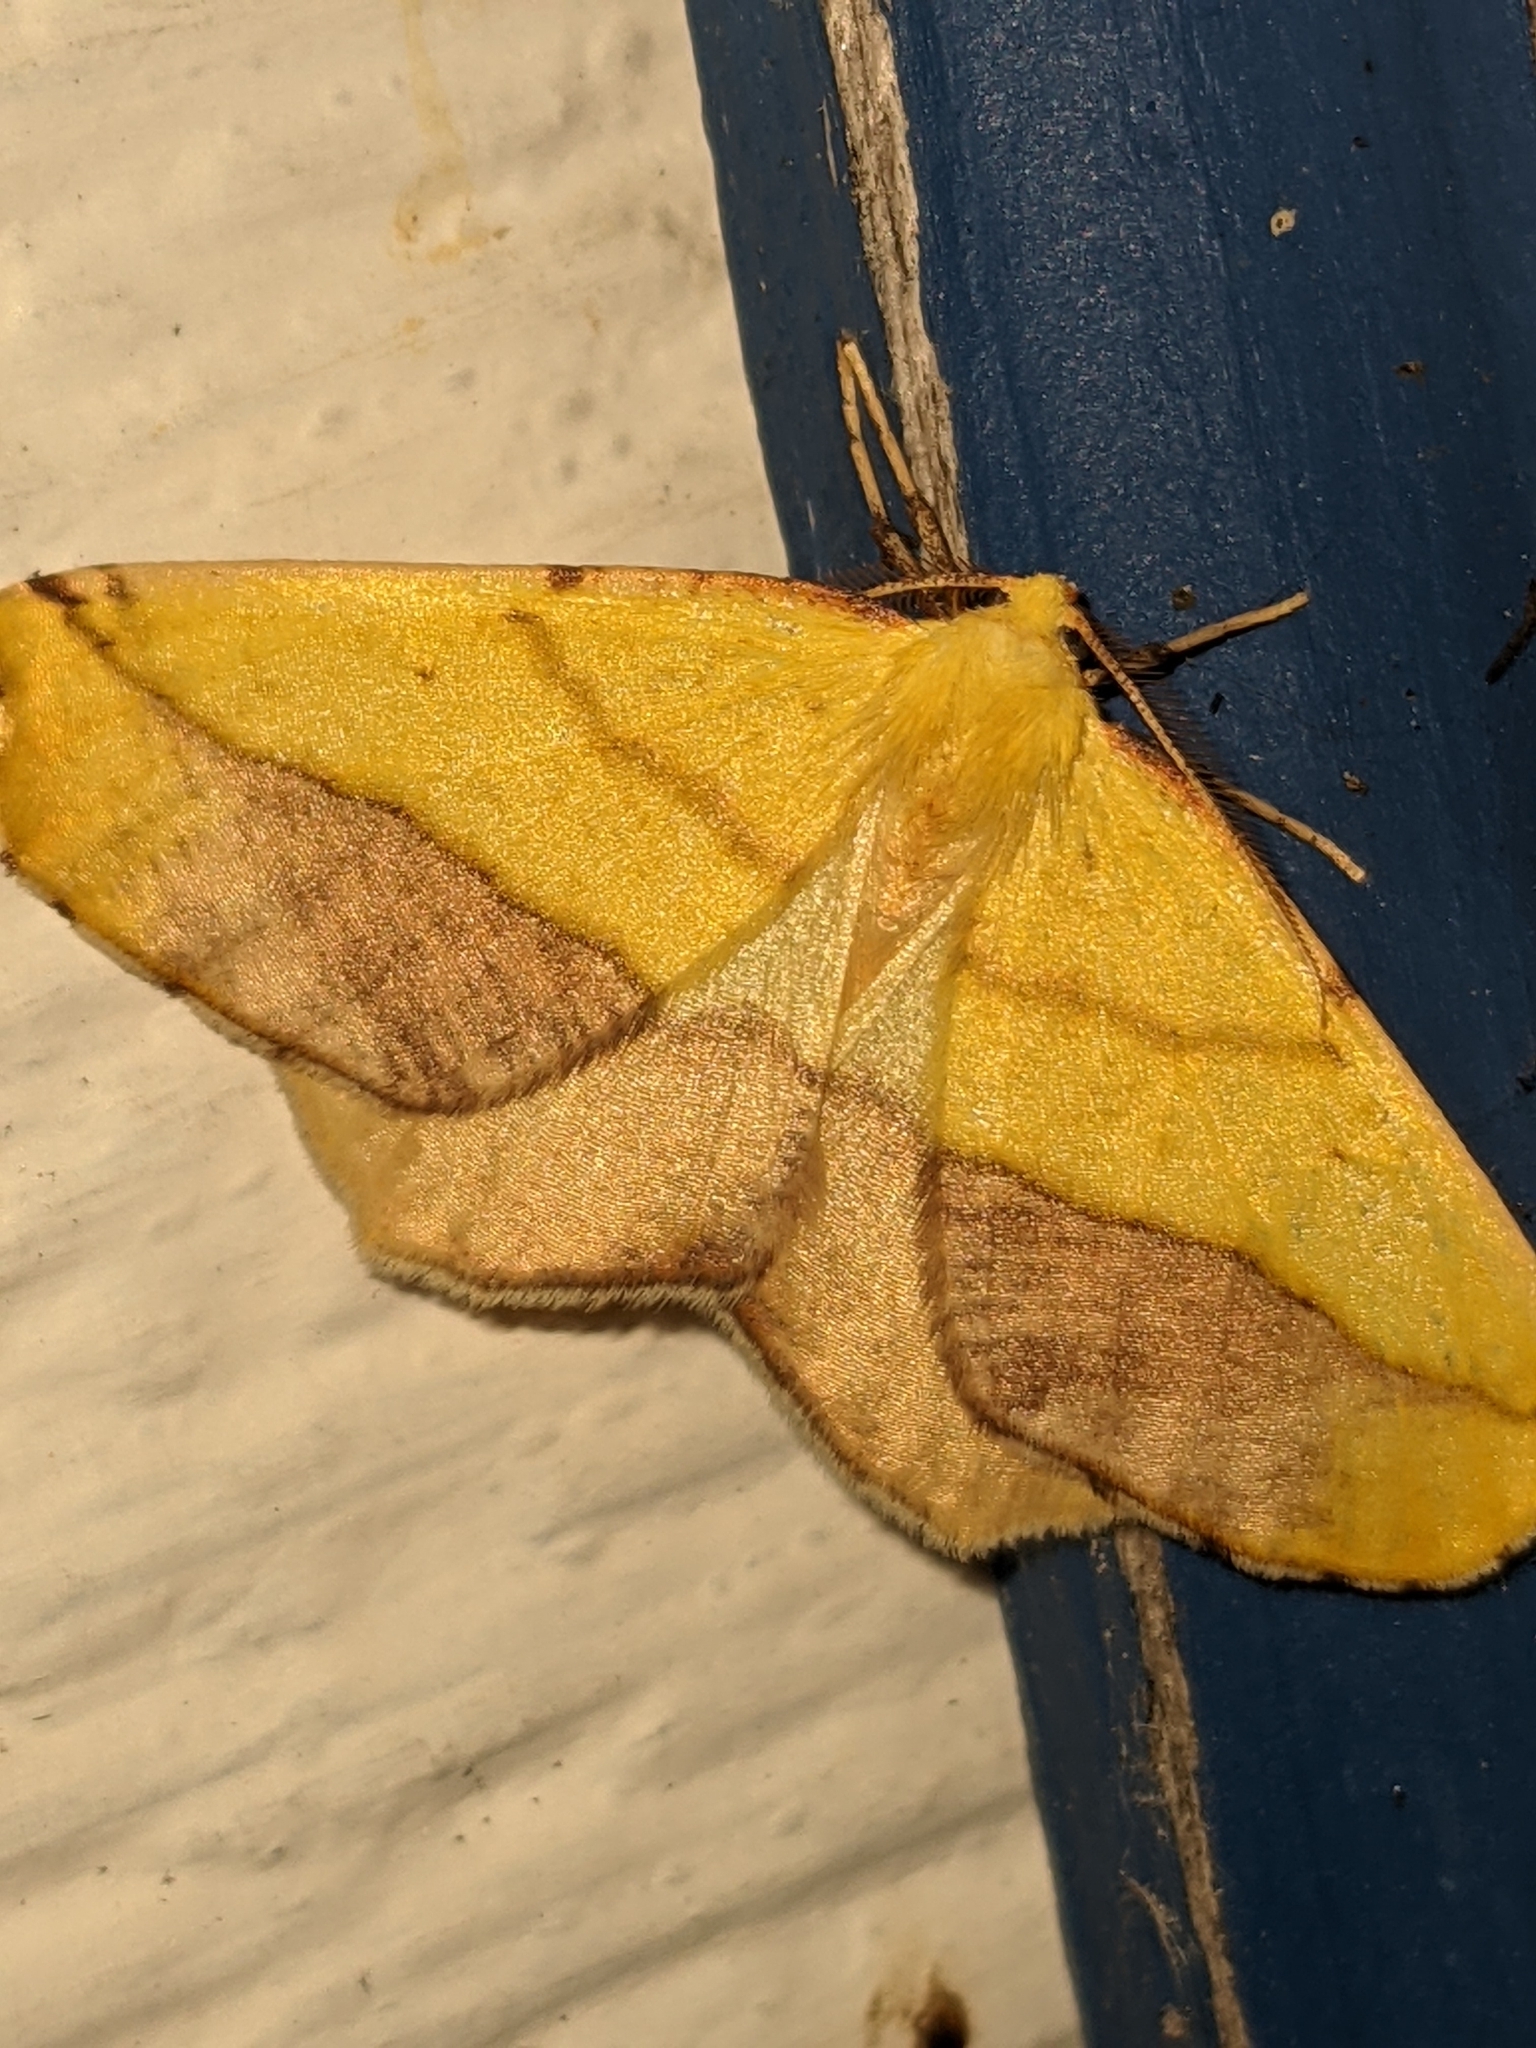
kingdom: Animalia
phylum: Arthropoda
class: Insecta
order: Lepidoptera
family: Geometridae
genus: Sicya
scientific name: Sicya macularia
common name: Sharp-lined yellow
